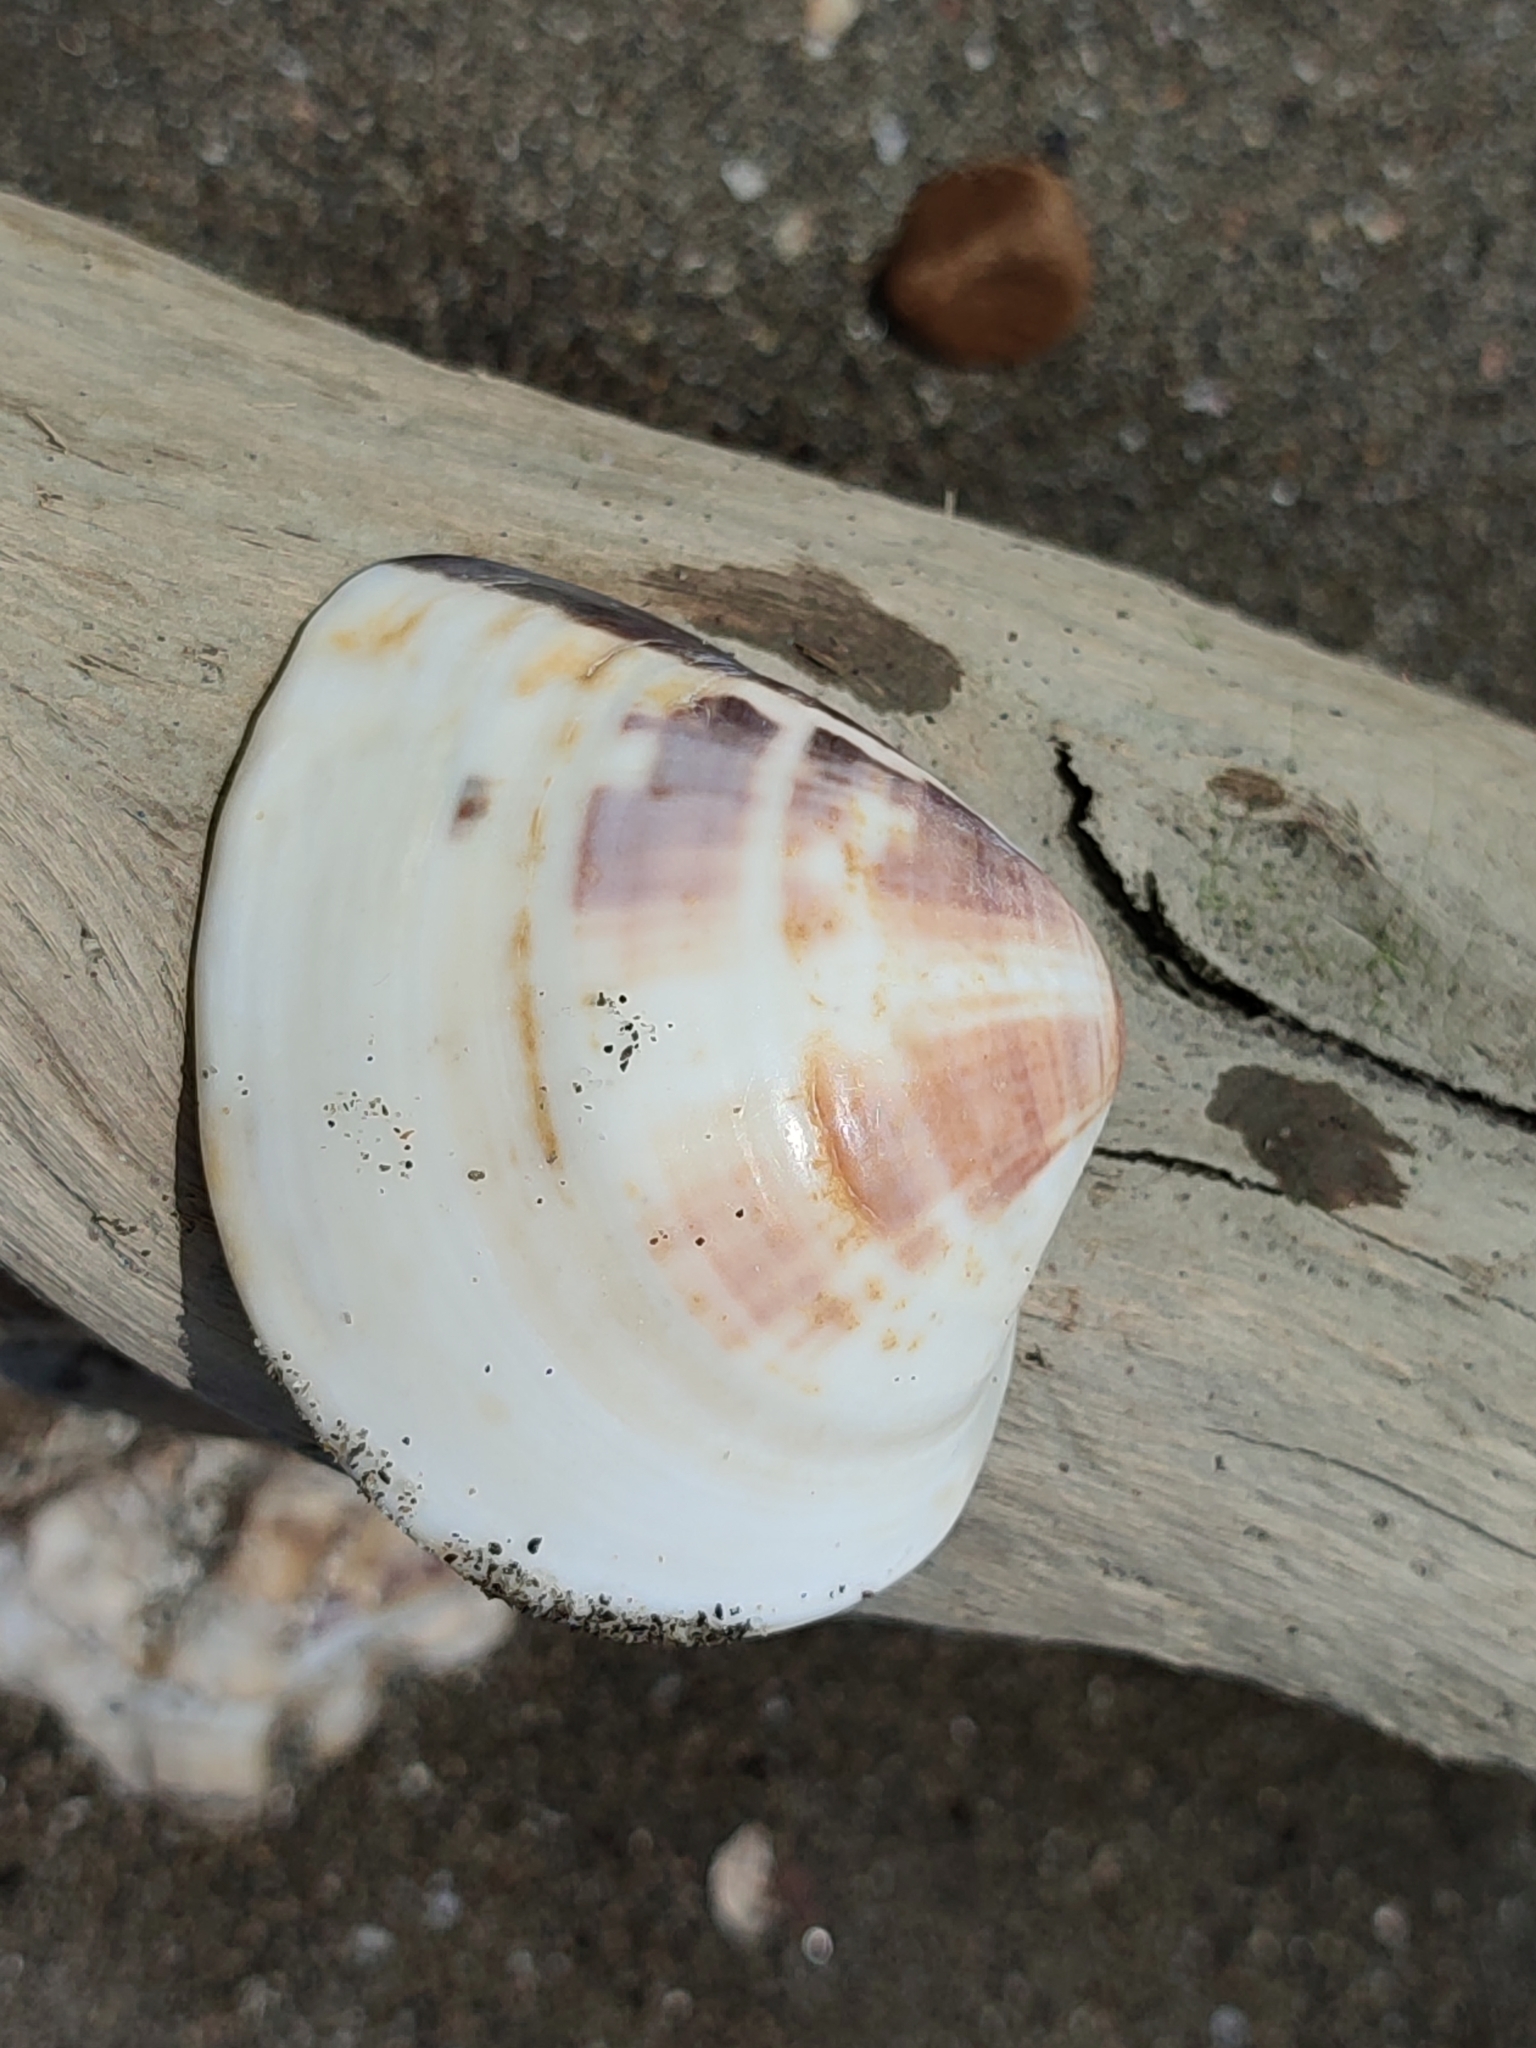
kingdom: Animalia
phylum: Mollusca
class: Bivalvia
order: Venerida
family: Veneridae
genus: Meretrix
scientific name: Meretrix lusoria
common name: Asian hard clam
